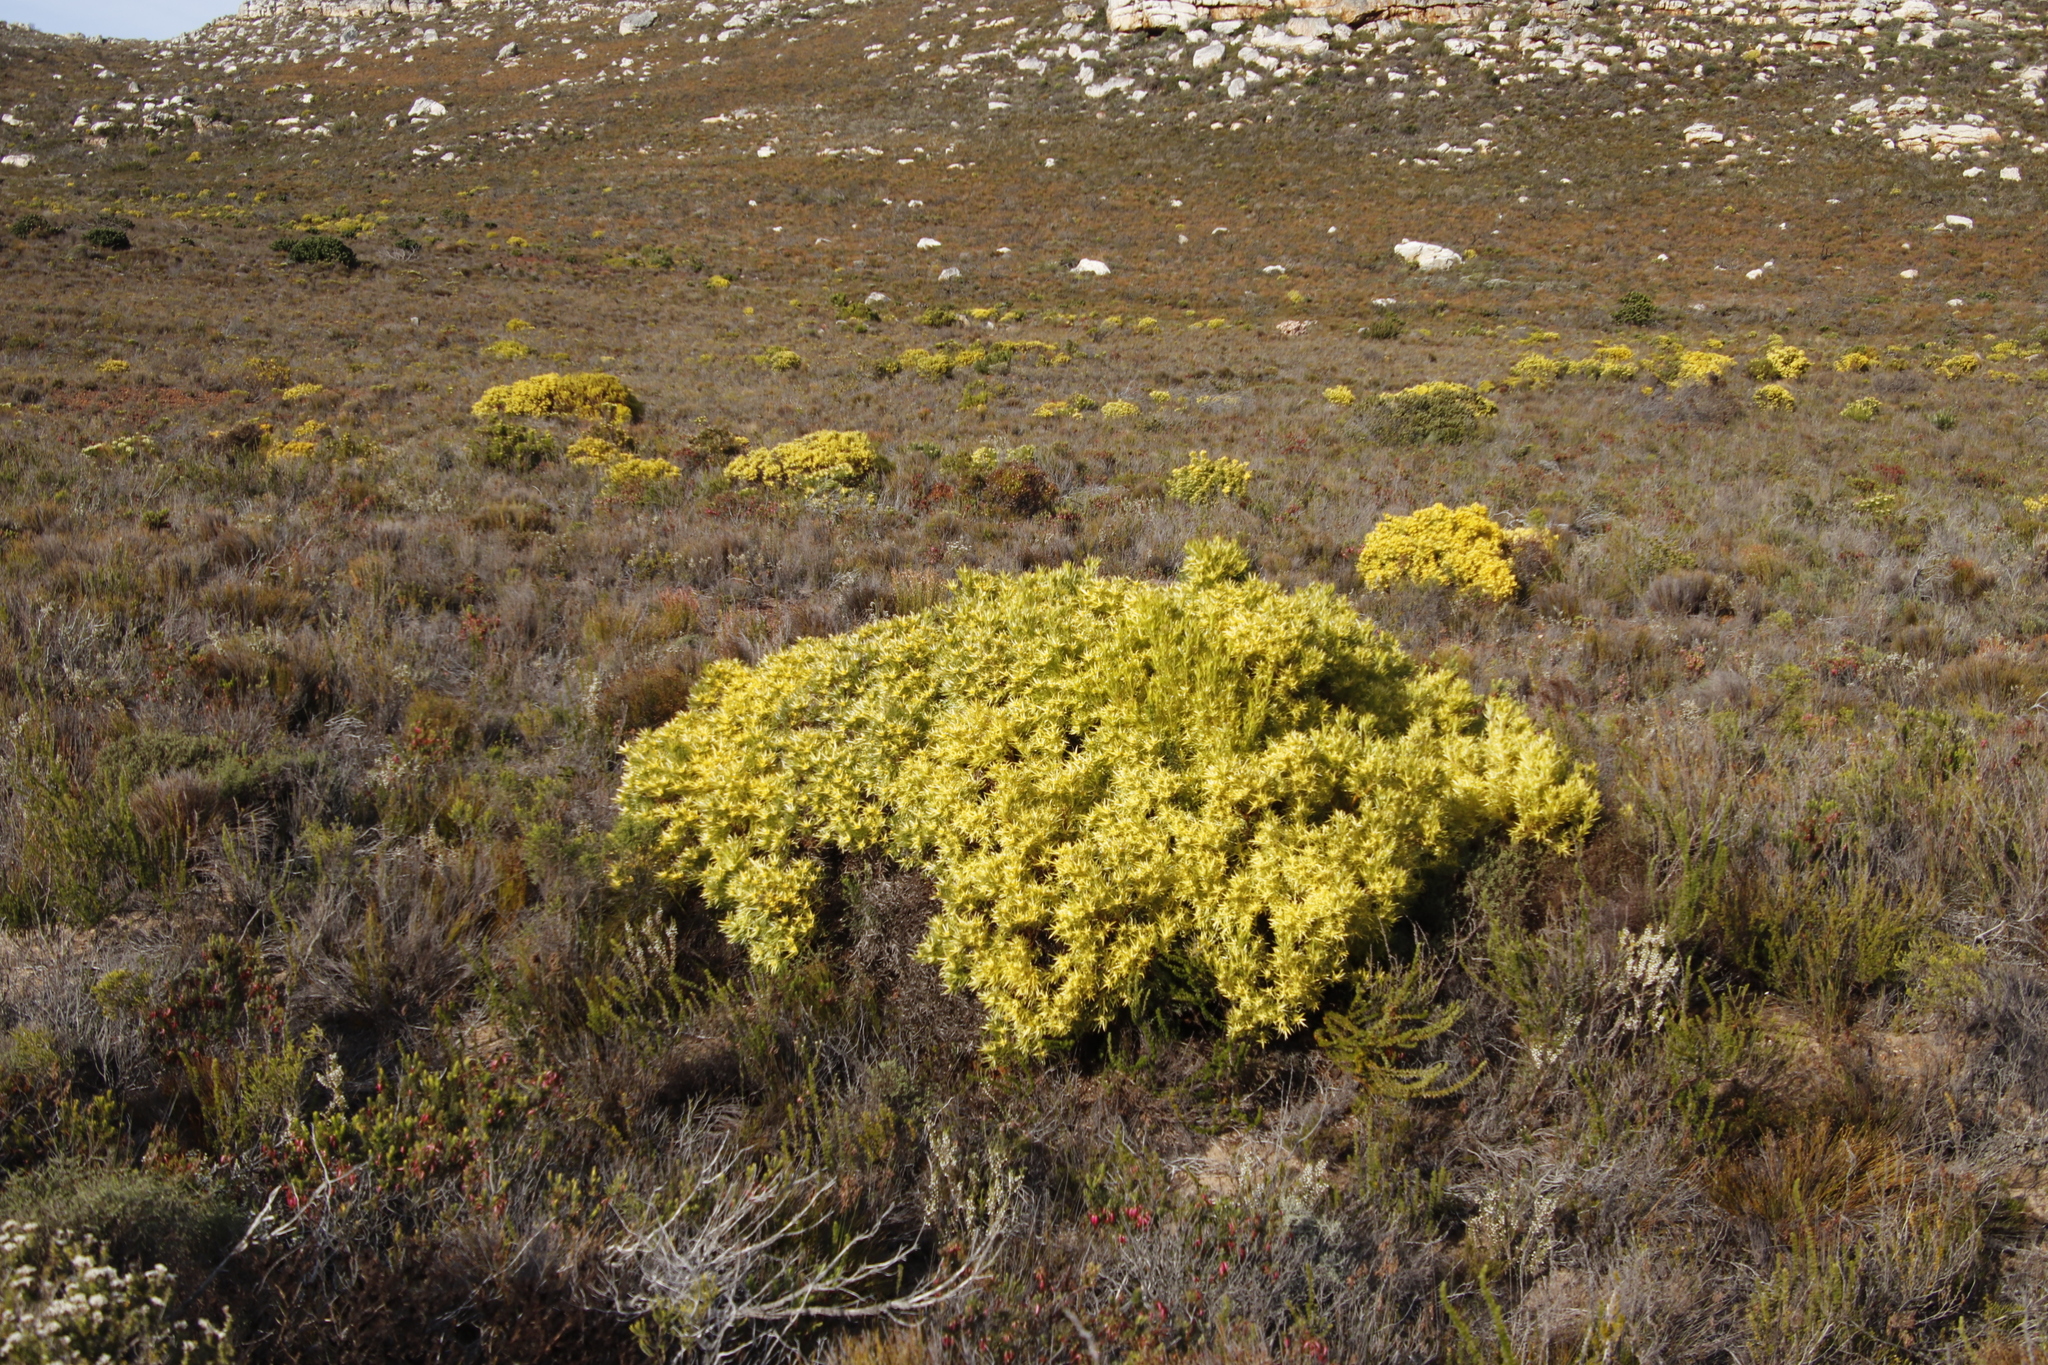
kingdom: Plantae
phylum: Tracheophyta
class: Magnoliopsida
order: Proteales
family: Proteaceae
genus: Leucadendron
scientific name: Leucadendron salignum
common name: Common sunshine conebush
